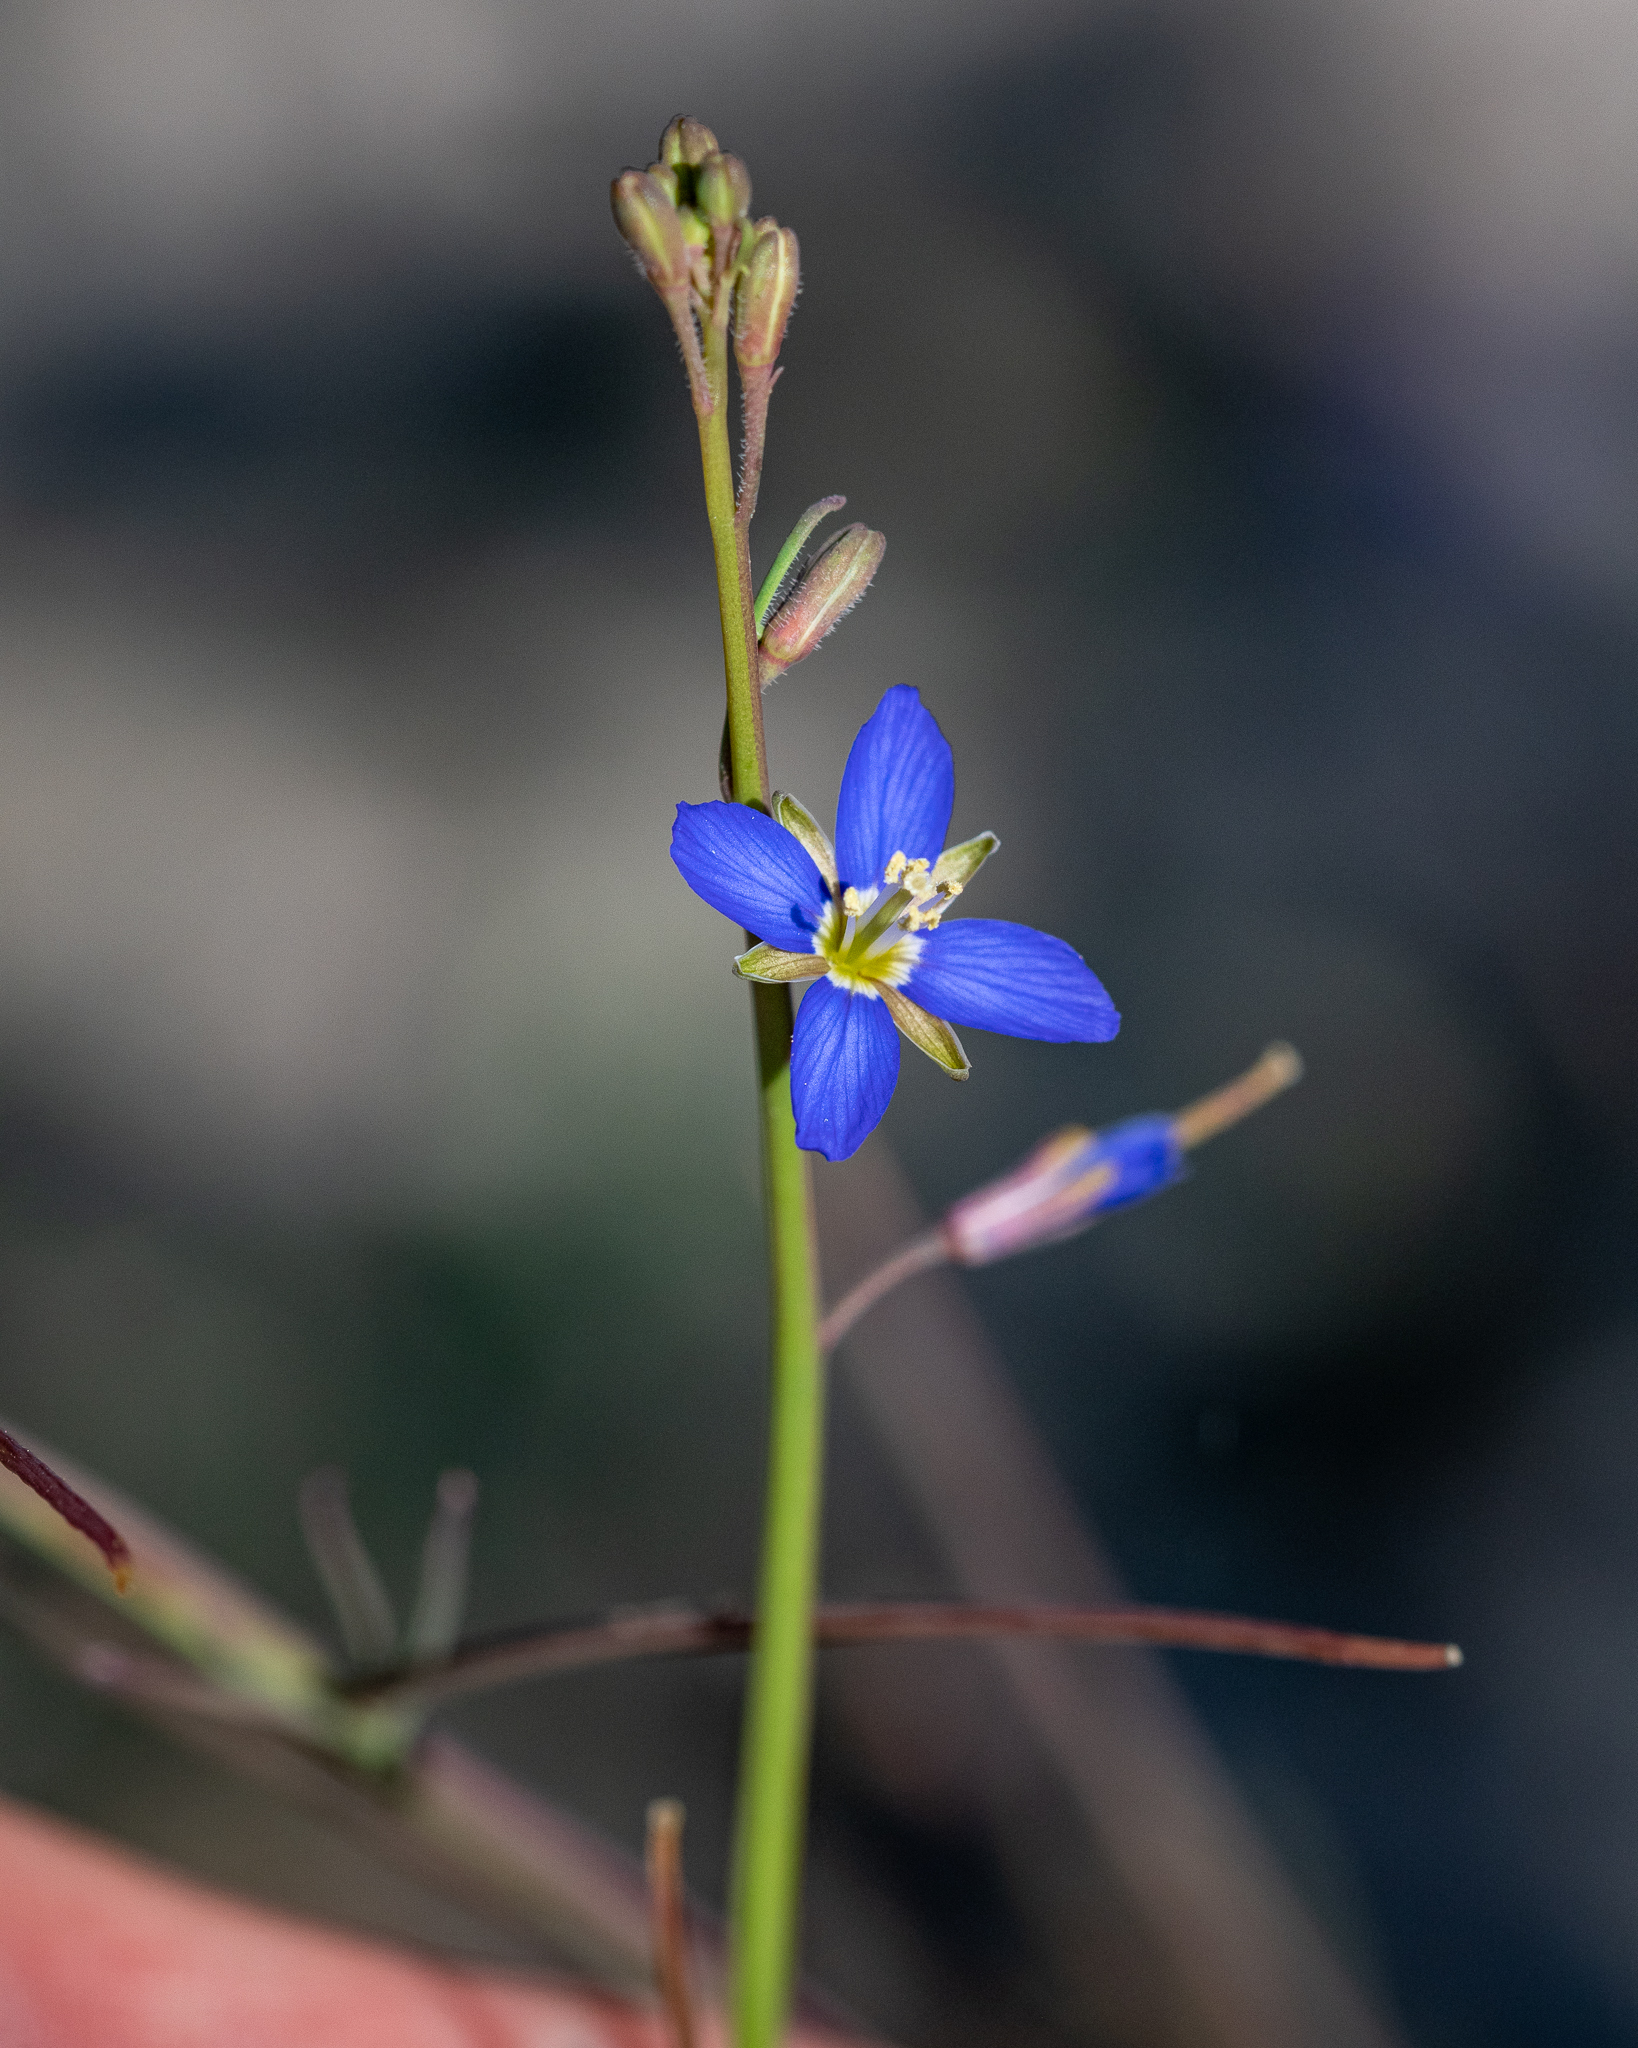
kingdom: Plantae
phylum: Tracheophyta
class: Magnoliopsida
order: Brassicales
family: Brassicaceae
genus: Heliophila
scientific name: Heliophila digitata
